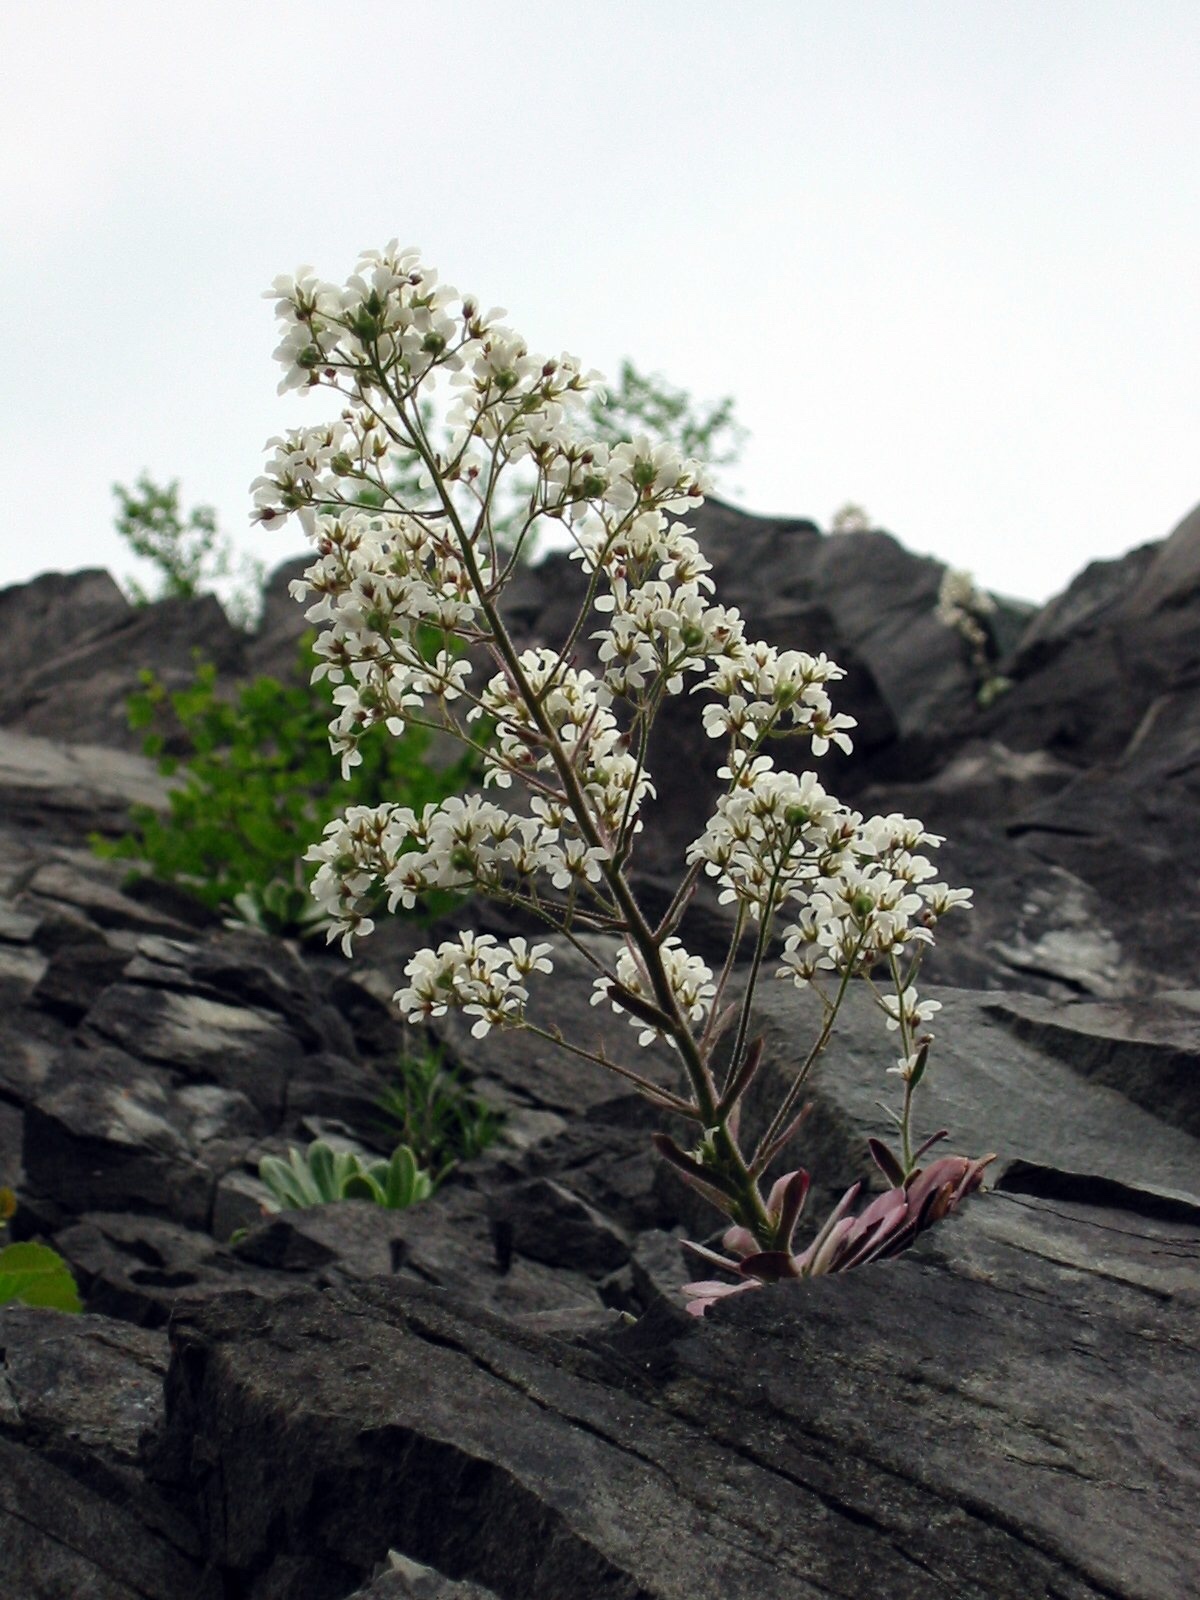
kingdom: Plantae
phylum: Tracheophyta
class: Magnoliopsida
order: Saxifragales
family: Saxifragaceae
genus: Saxifraga
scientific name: Saxifraga cotyledon
